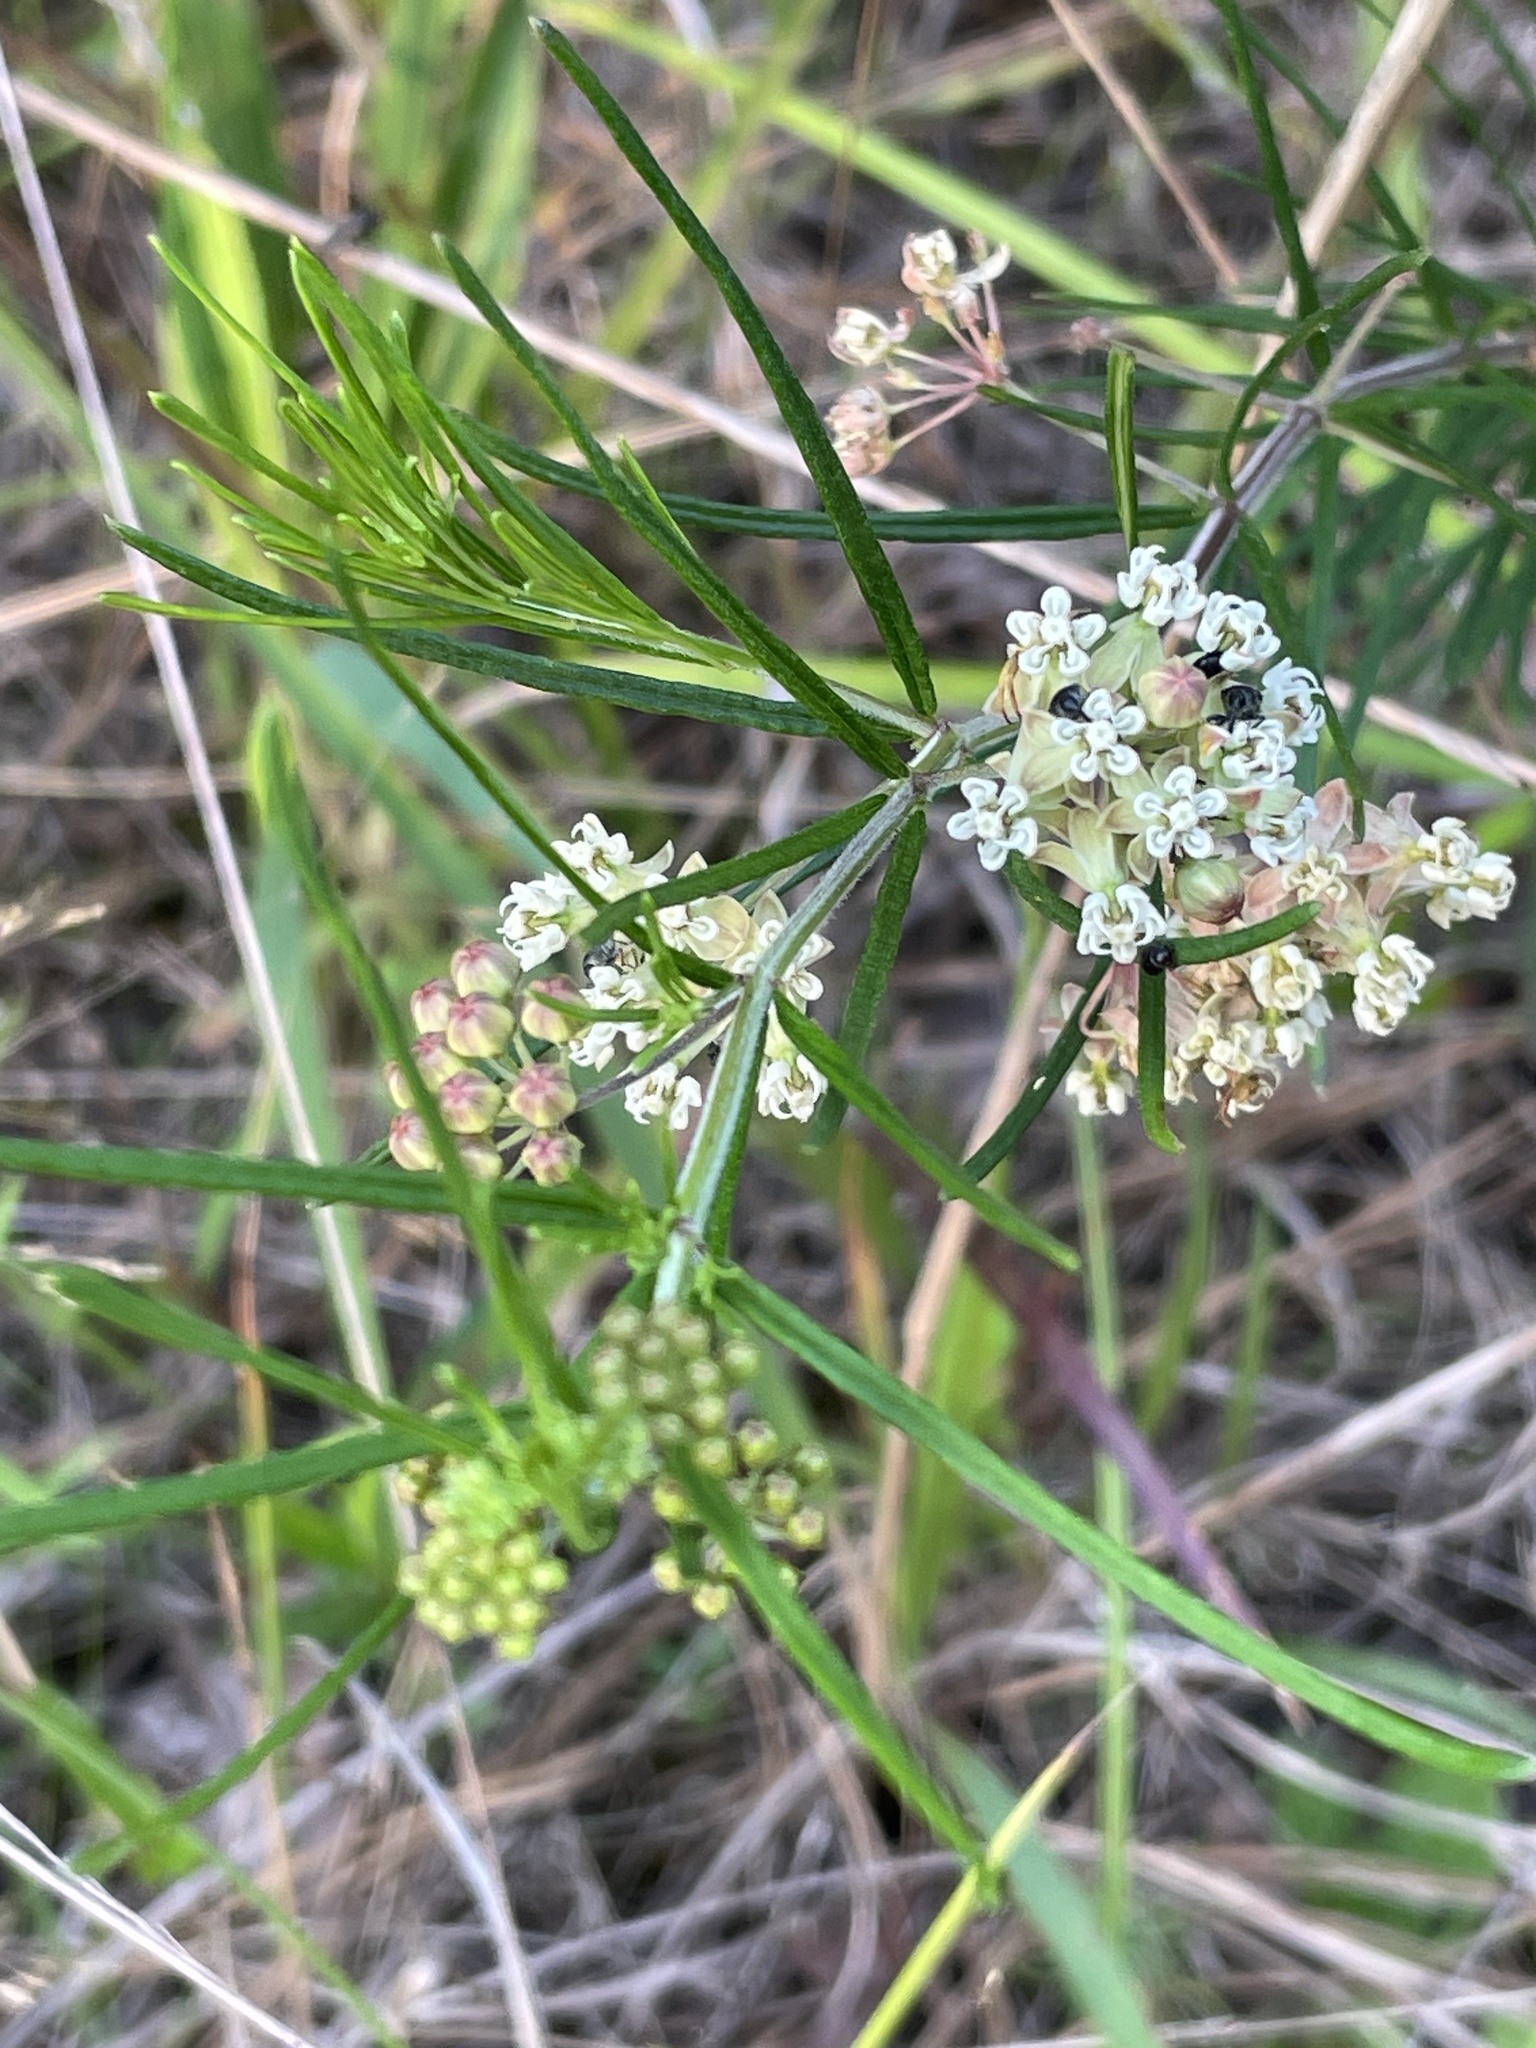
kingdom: Plantae
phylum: Tracheophyta
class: Magnoliopsida
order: Gentianales
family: Apocynaceae
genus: Asclepias
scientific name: Asclepias verticillata
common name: Eastern whorled milkweed
